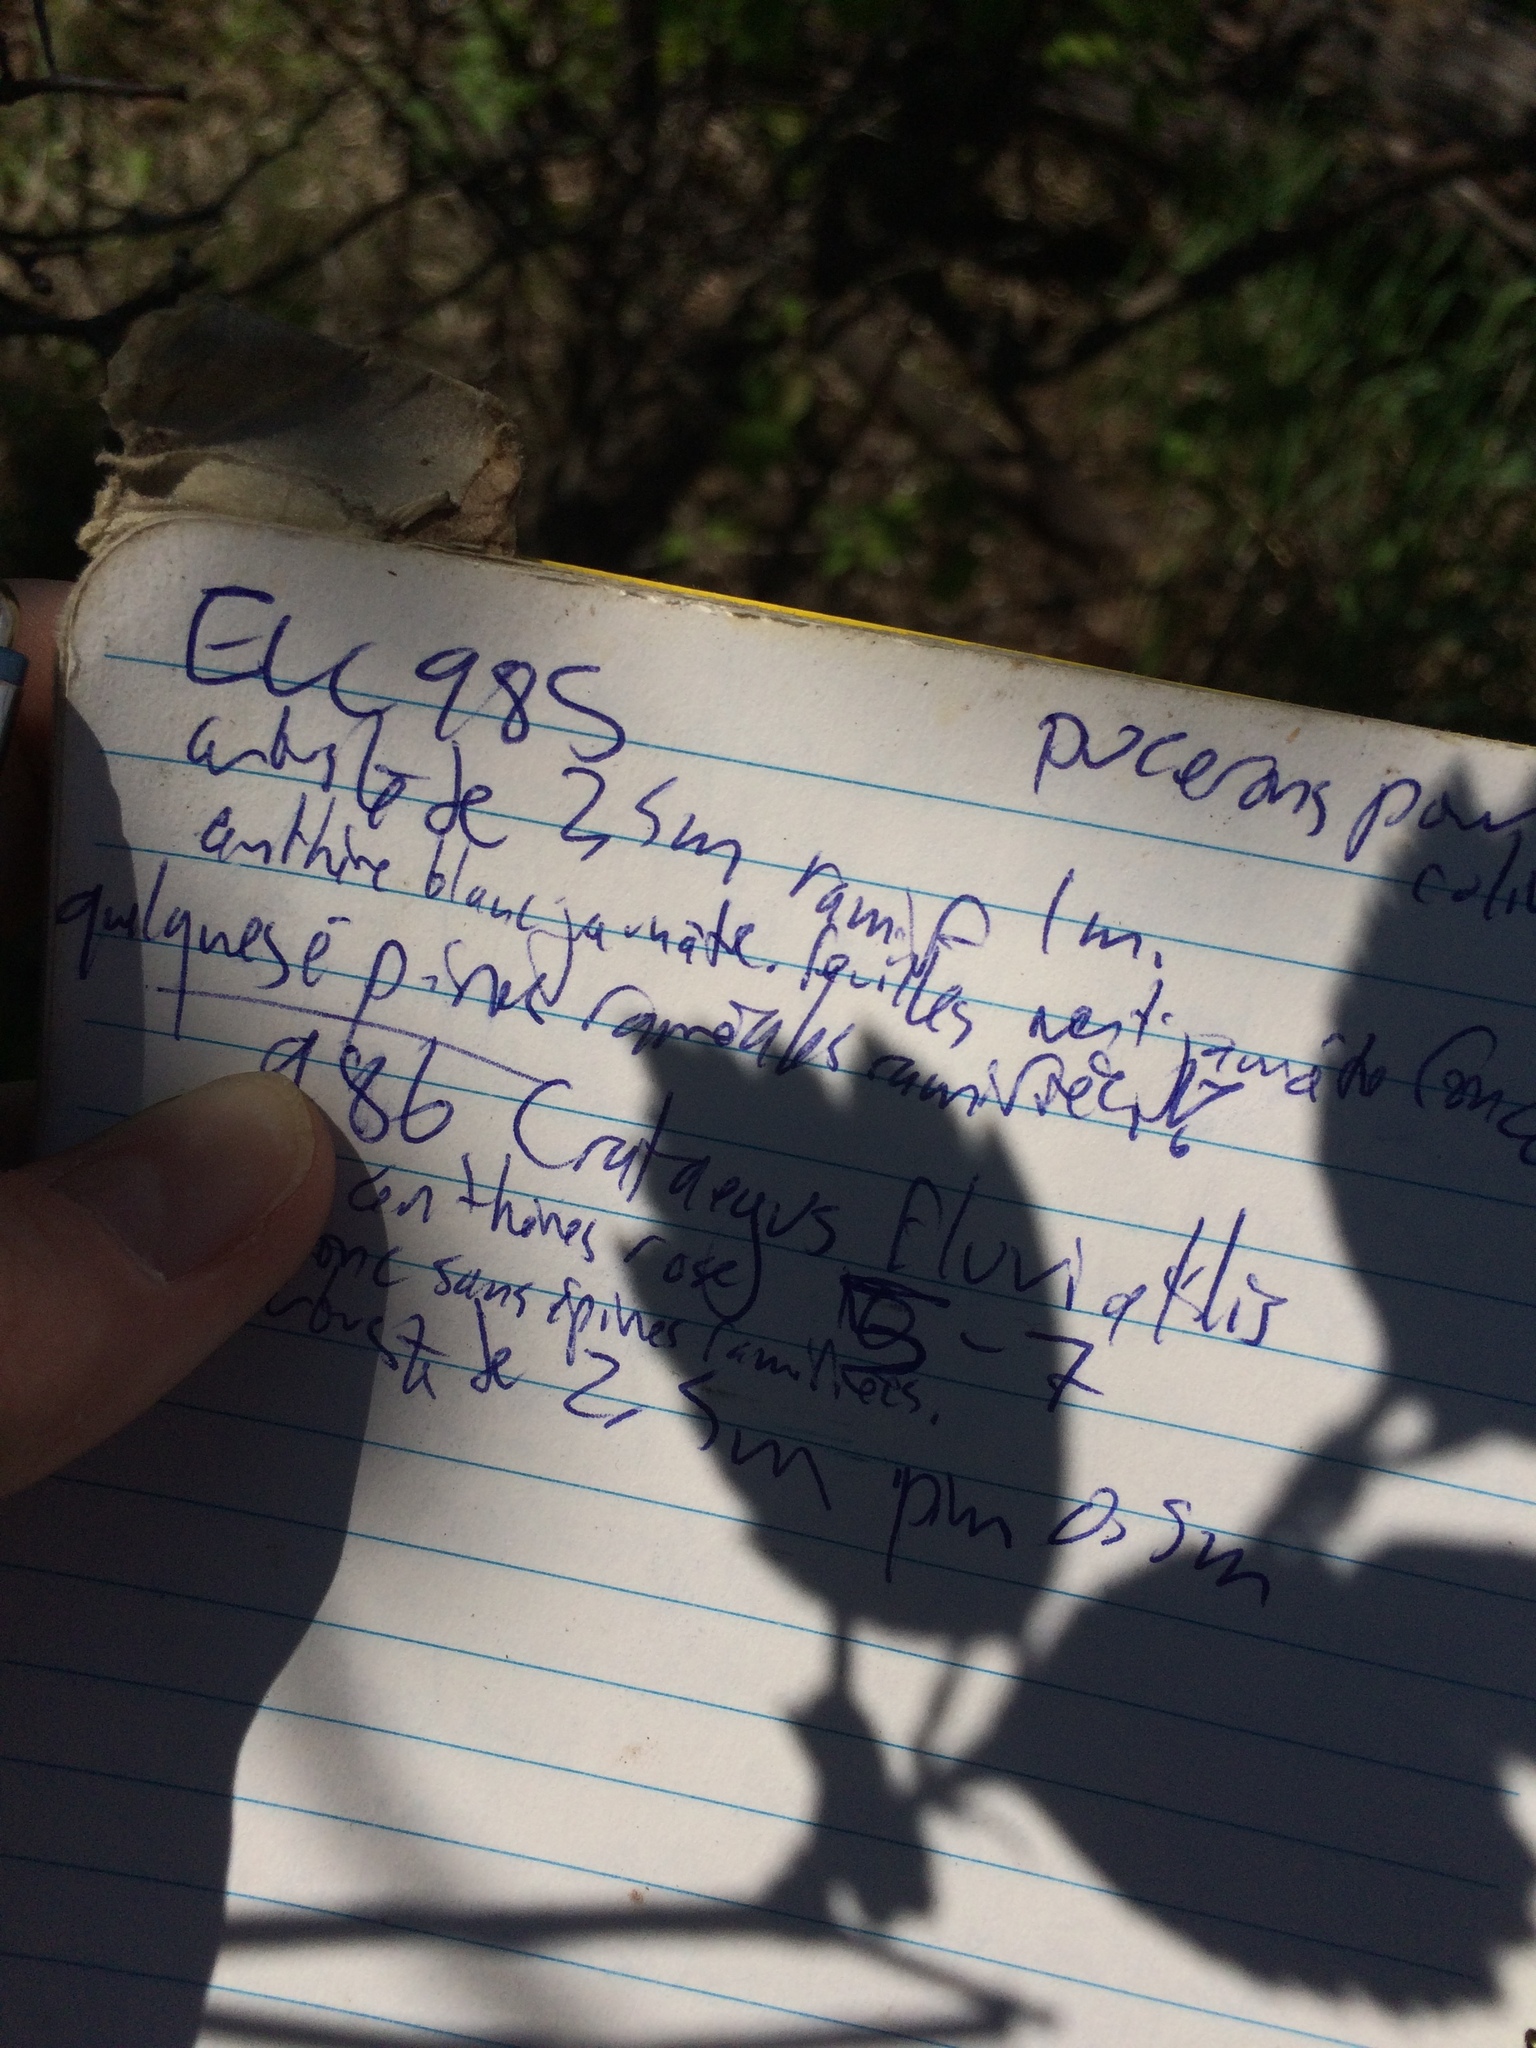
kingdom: Plantae
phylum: Tracheophyta
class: Magnoliopsida
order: Rosales
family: Rosaceae
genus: Crataegus
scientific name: Crataegus fluviatilis
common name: Fort sheridan hawthorn
